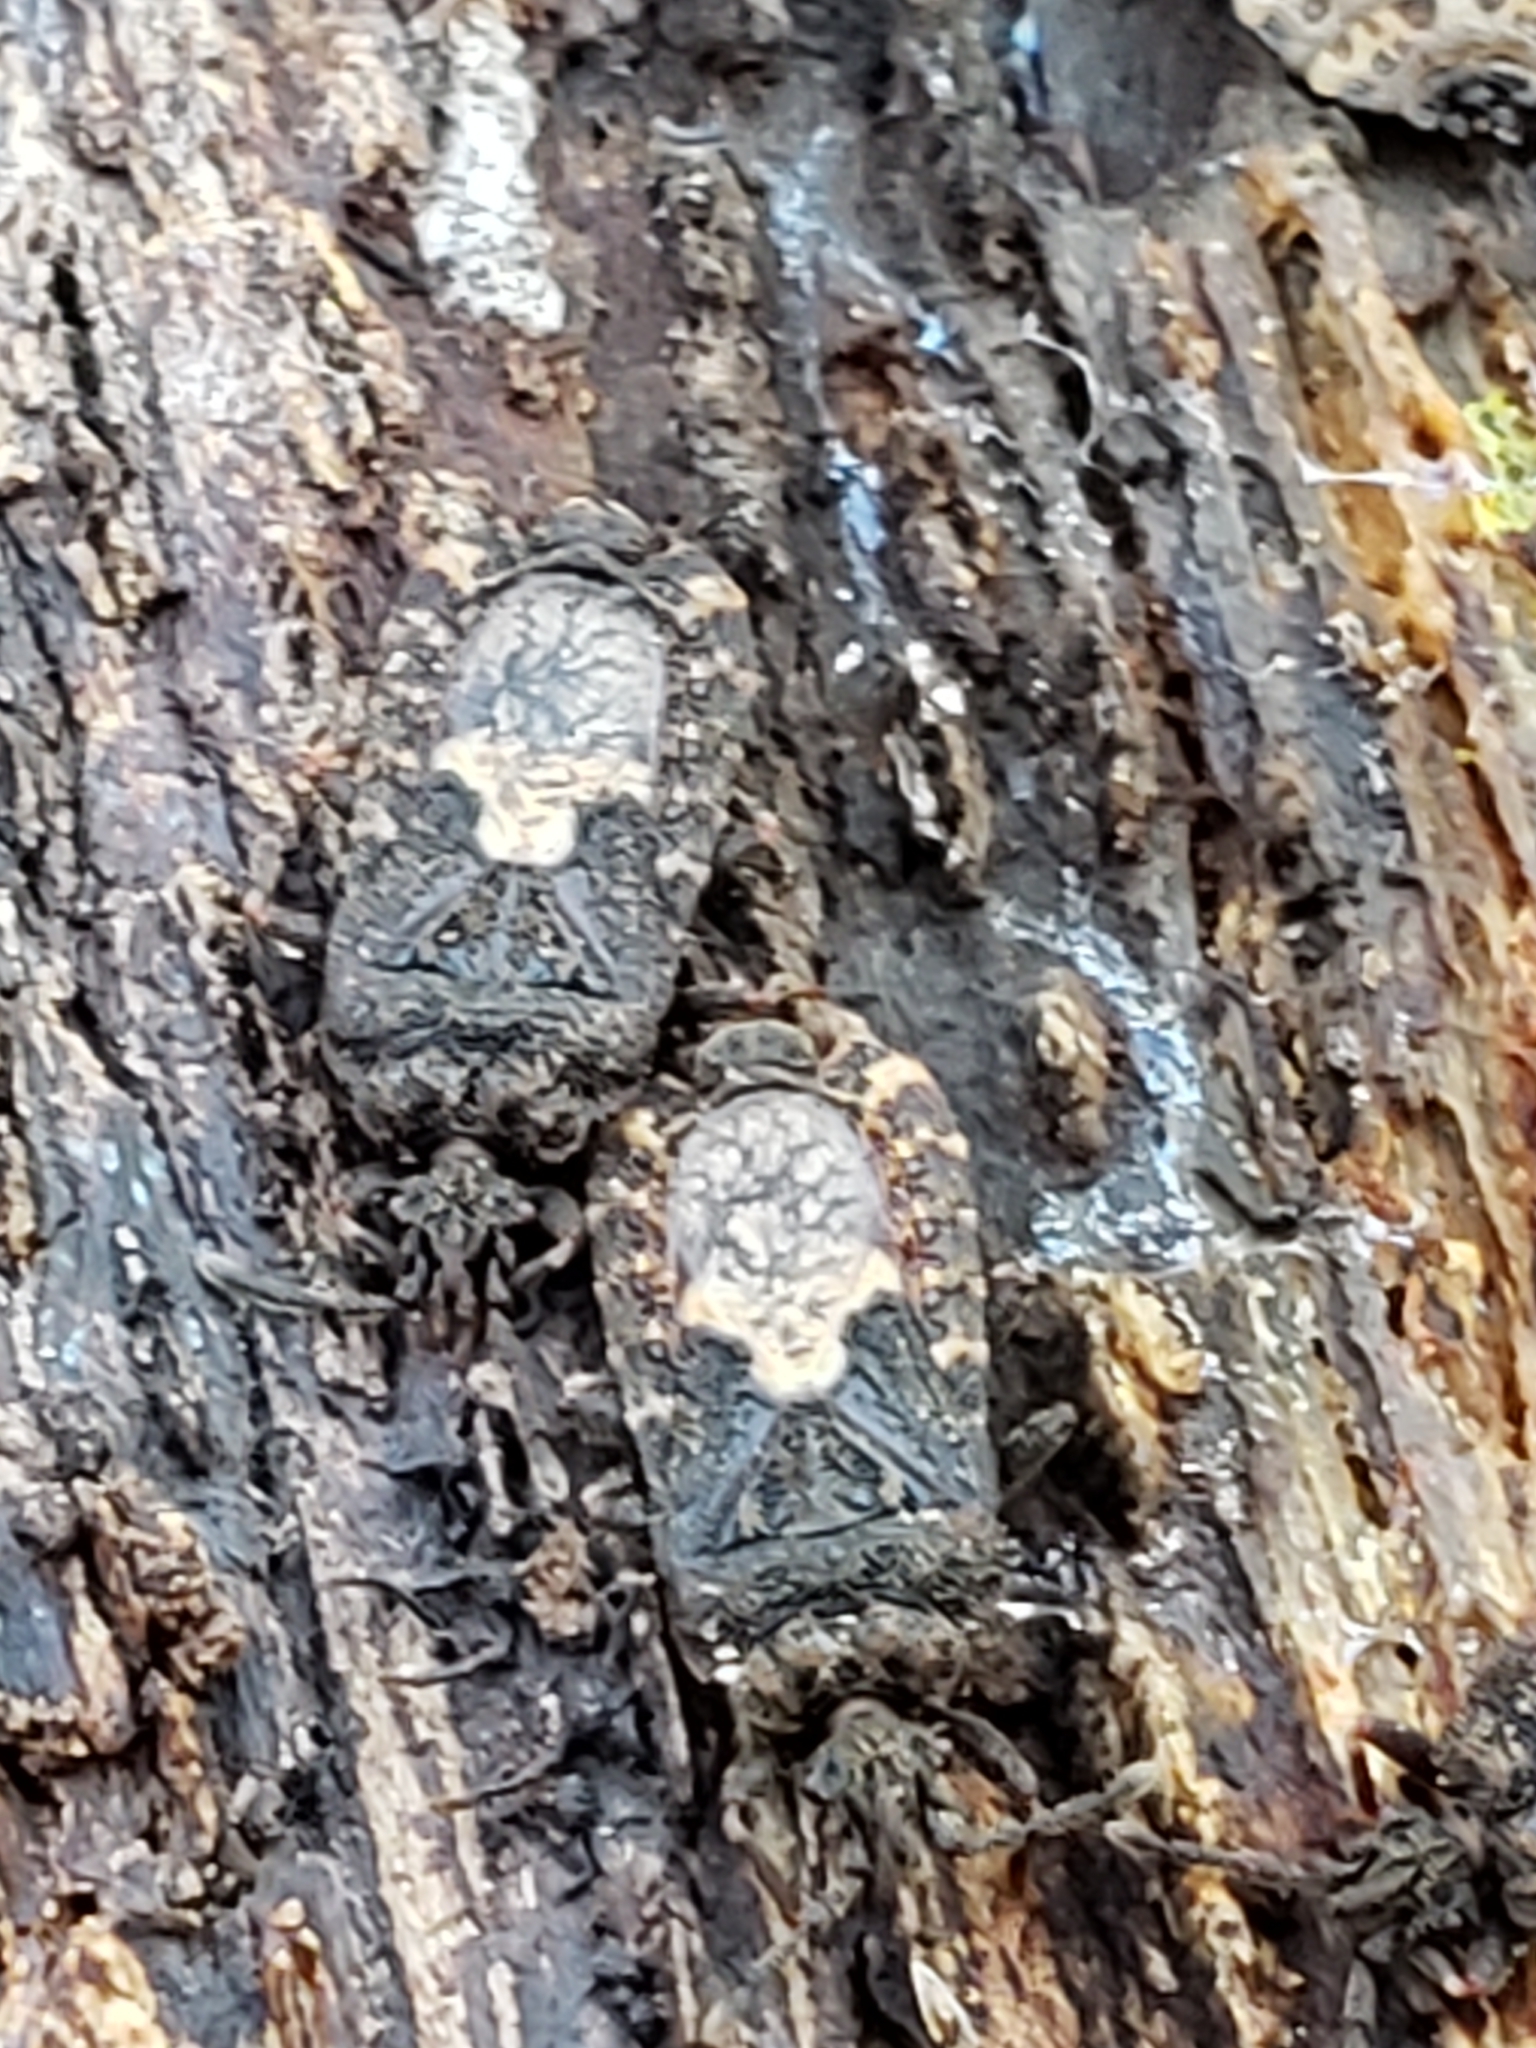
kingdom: Animalia
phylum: Arthropoda
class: Insecta
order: Hemiptera
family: Aradidae
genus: Mezira
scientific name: Mezira
